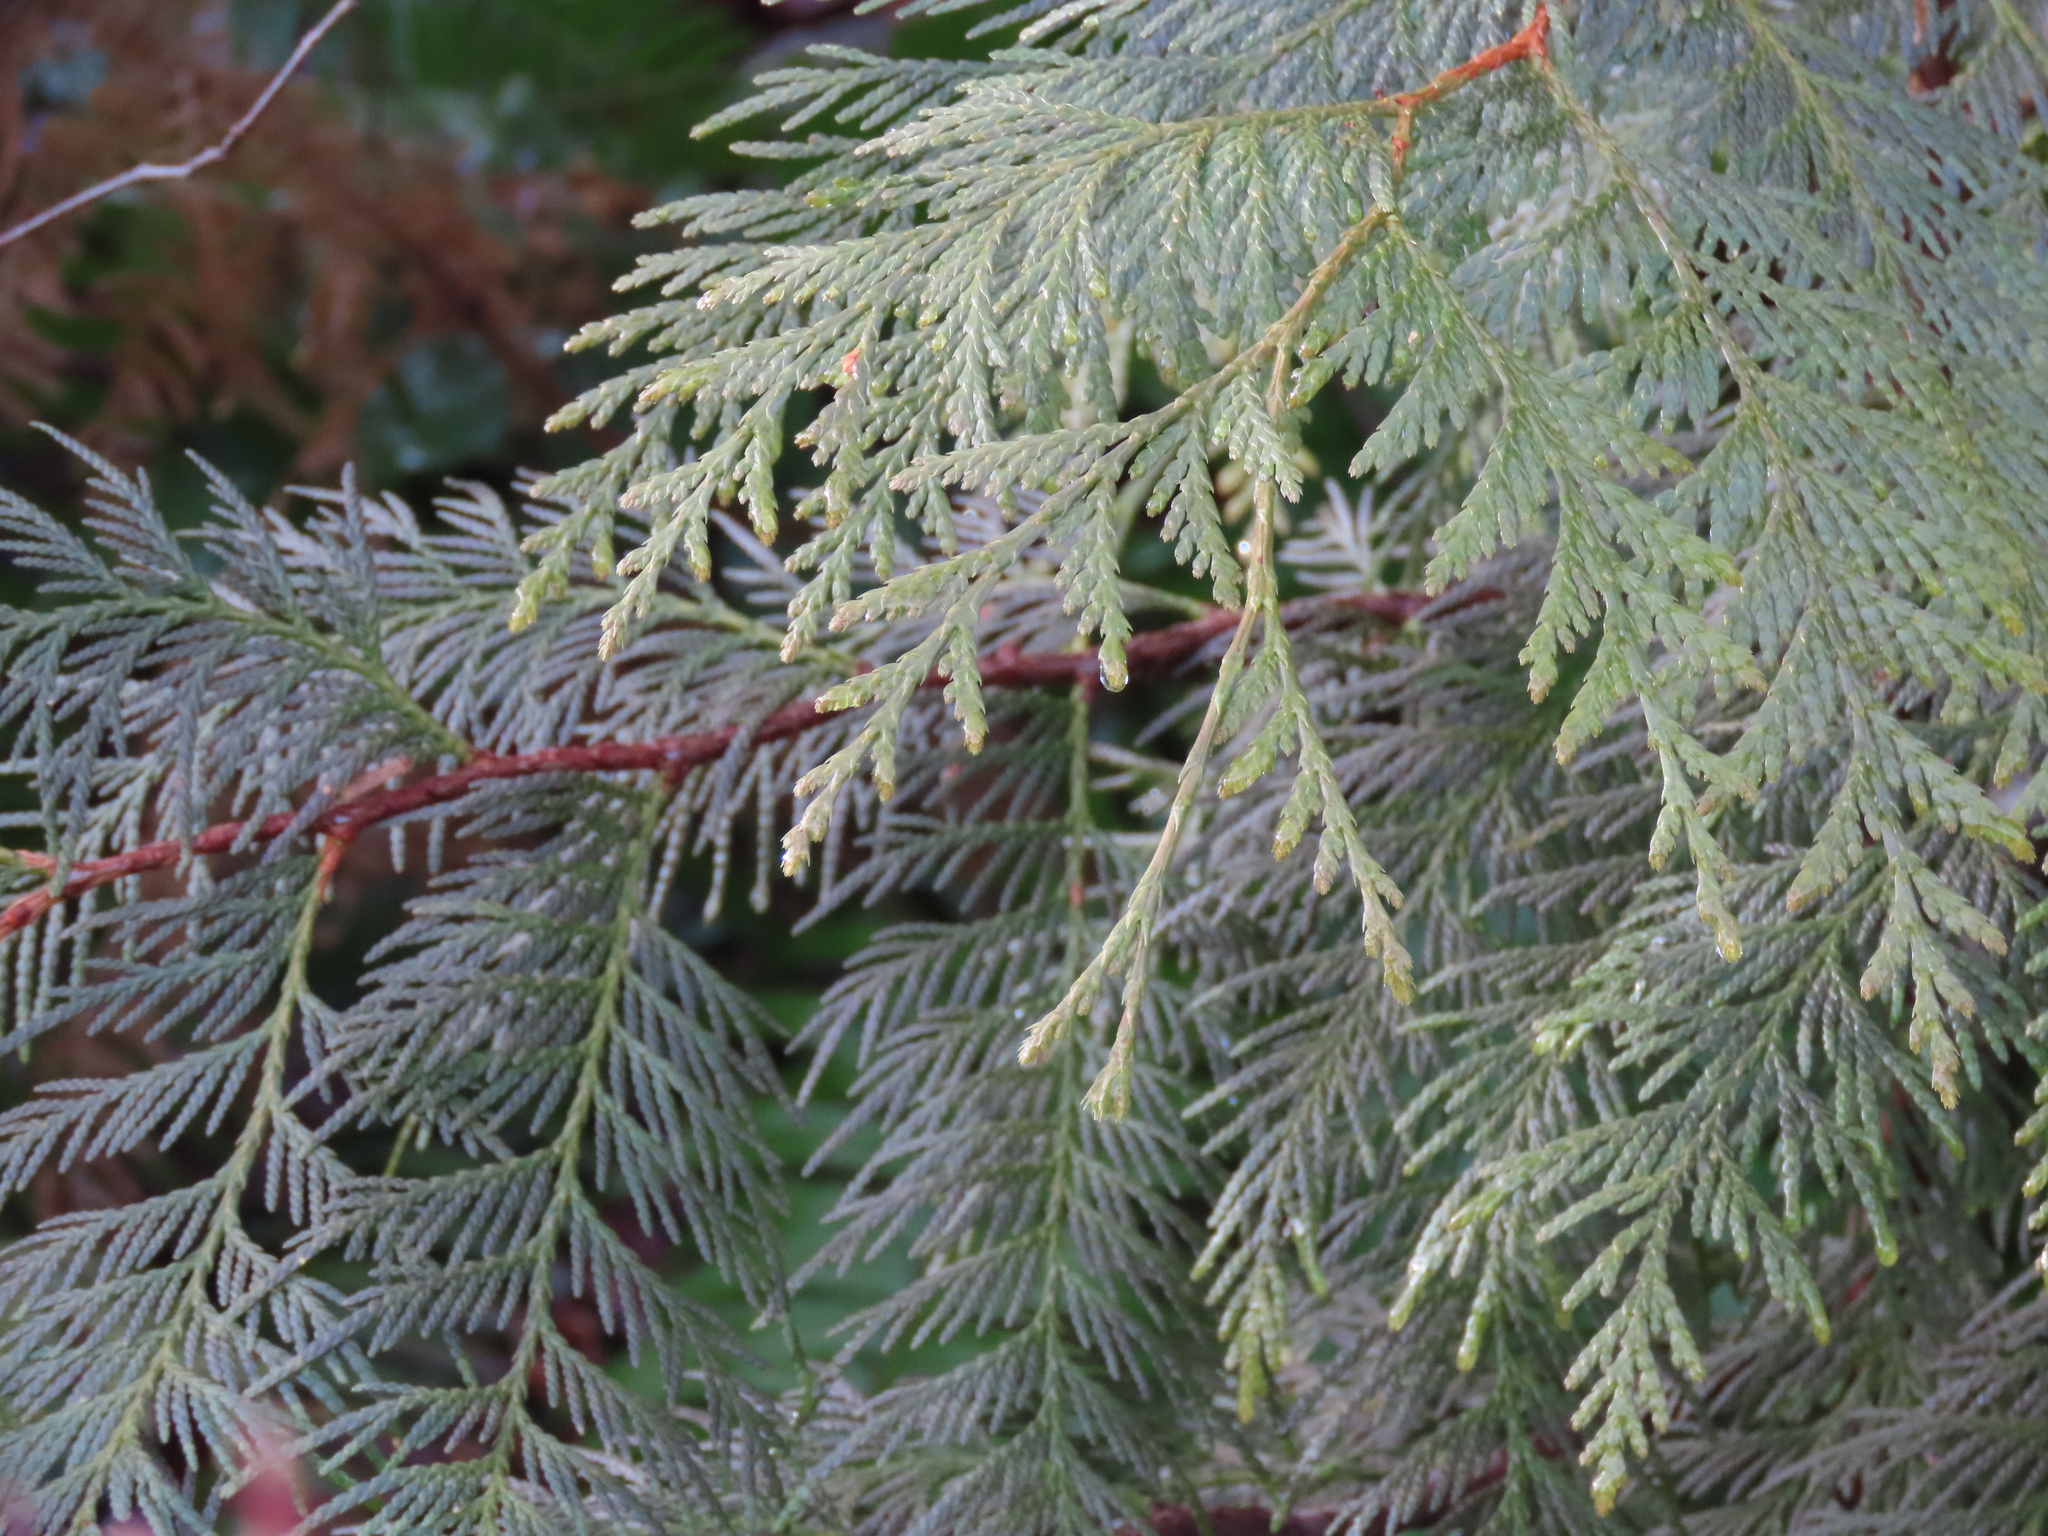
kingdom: Plantae
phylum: Tracheophyta
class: Pinopsida
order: Pinales
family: Cupressaceae
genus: Thuja
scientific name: Thuja plicata
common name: Western red-cedar
